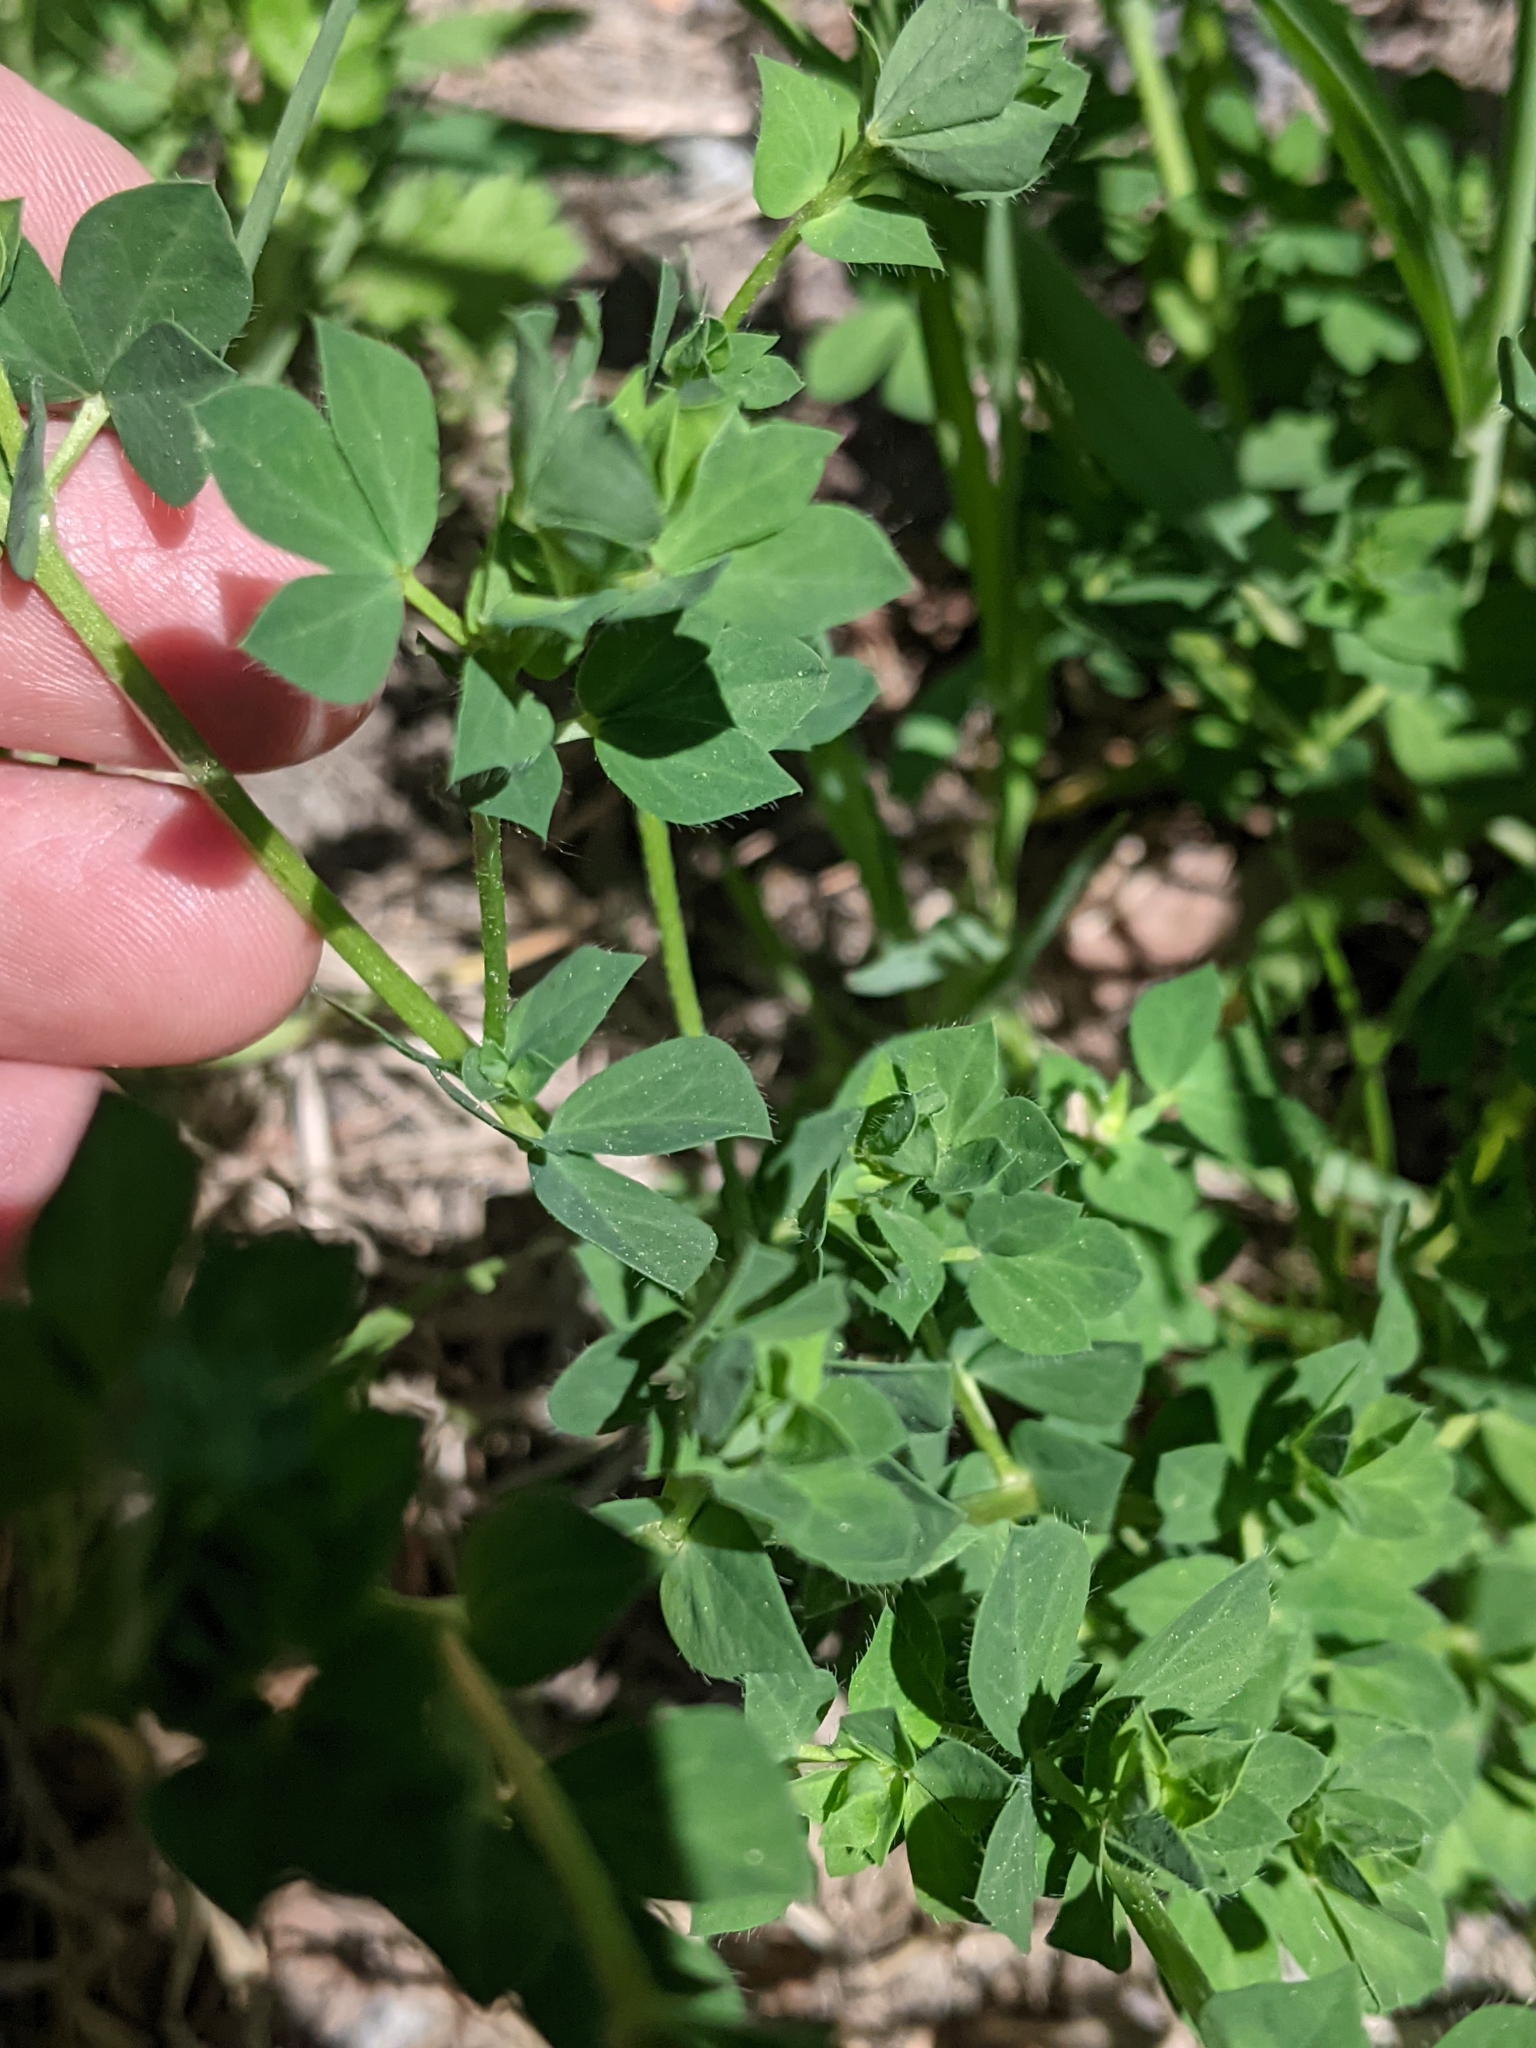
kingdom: Plantae
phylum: Tracheophyta
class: Magnoliopsida
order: Fabales
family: Fabaceae
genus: Lotus
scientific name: Lotus corniculatus
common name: Common bird's-foot-trefoil
